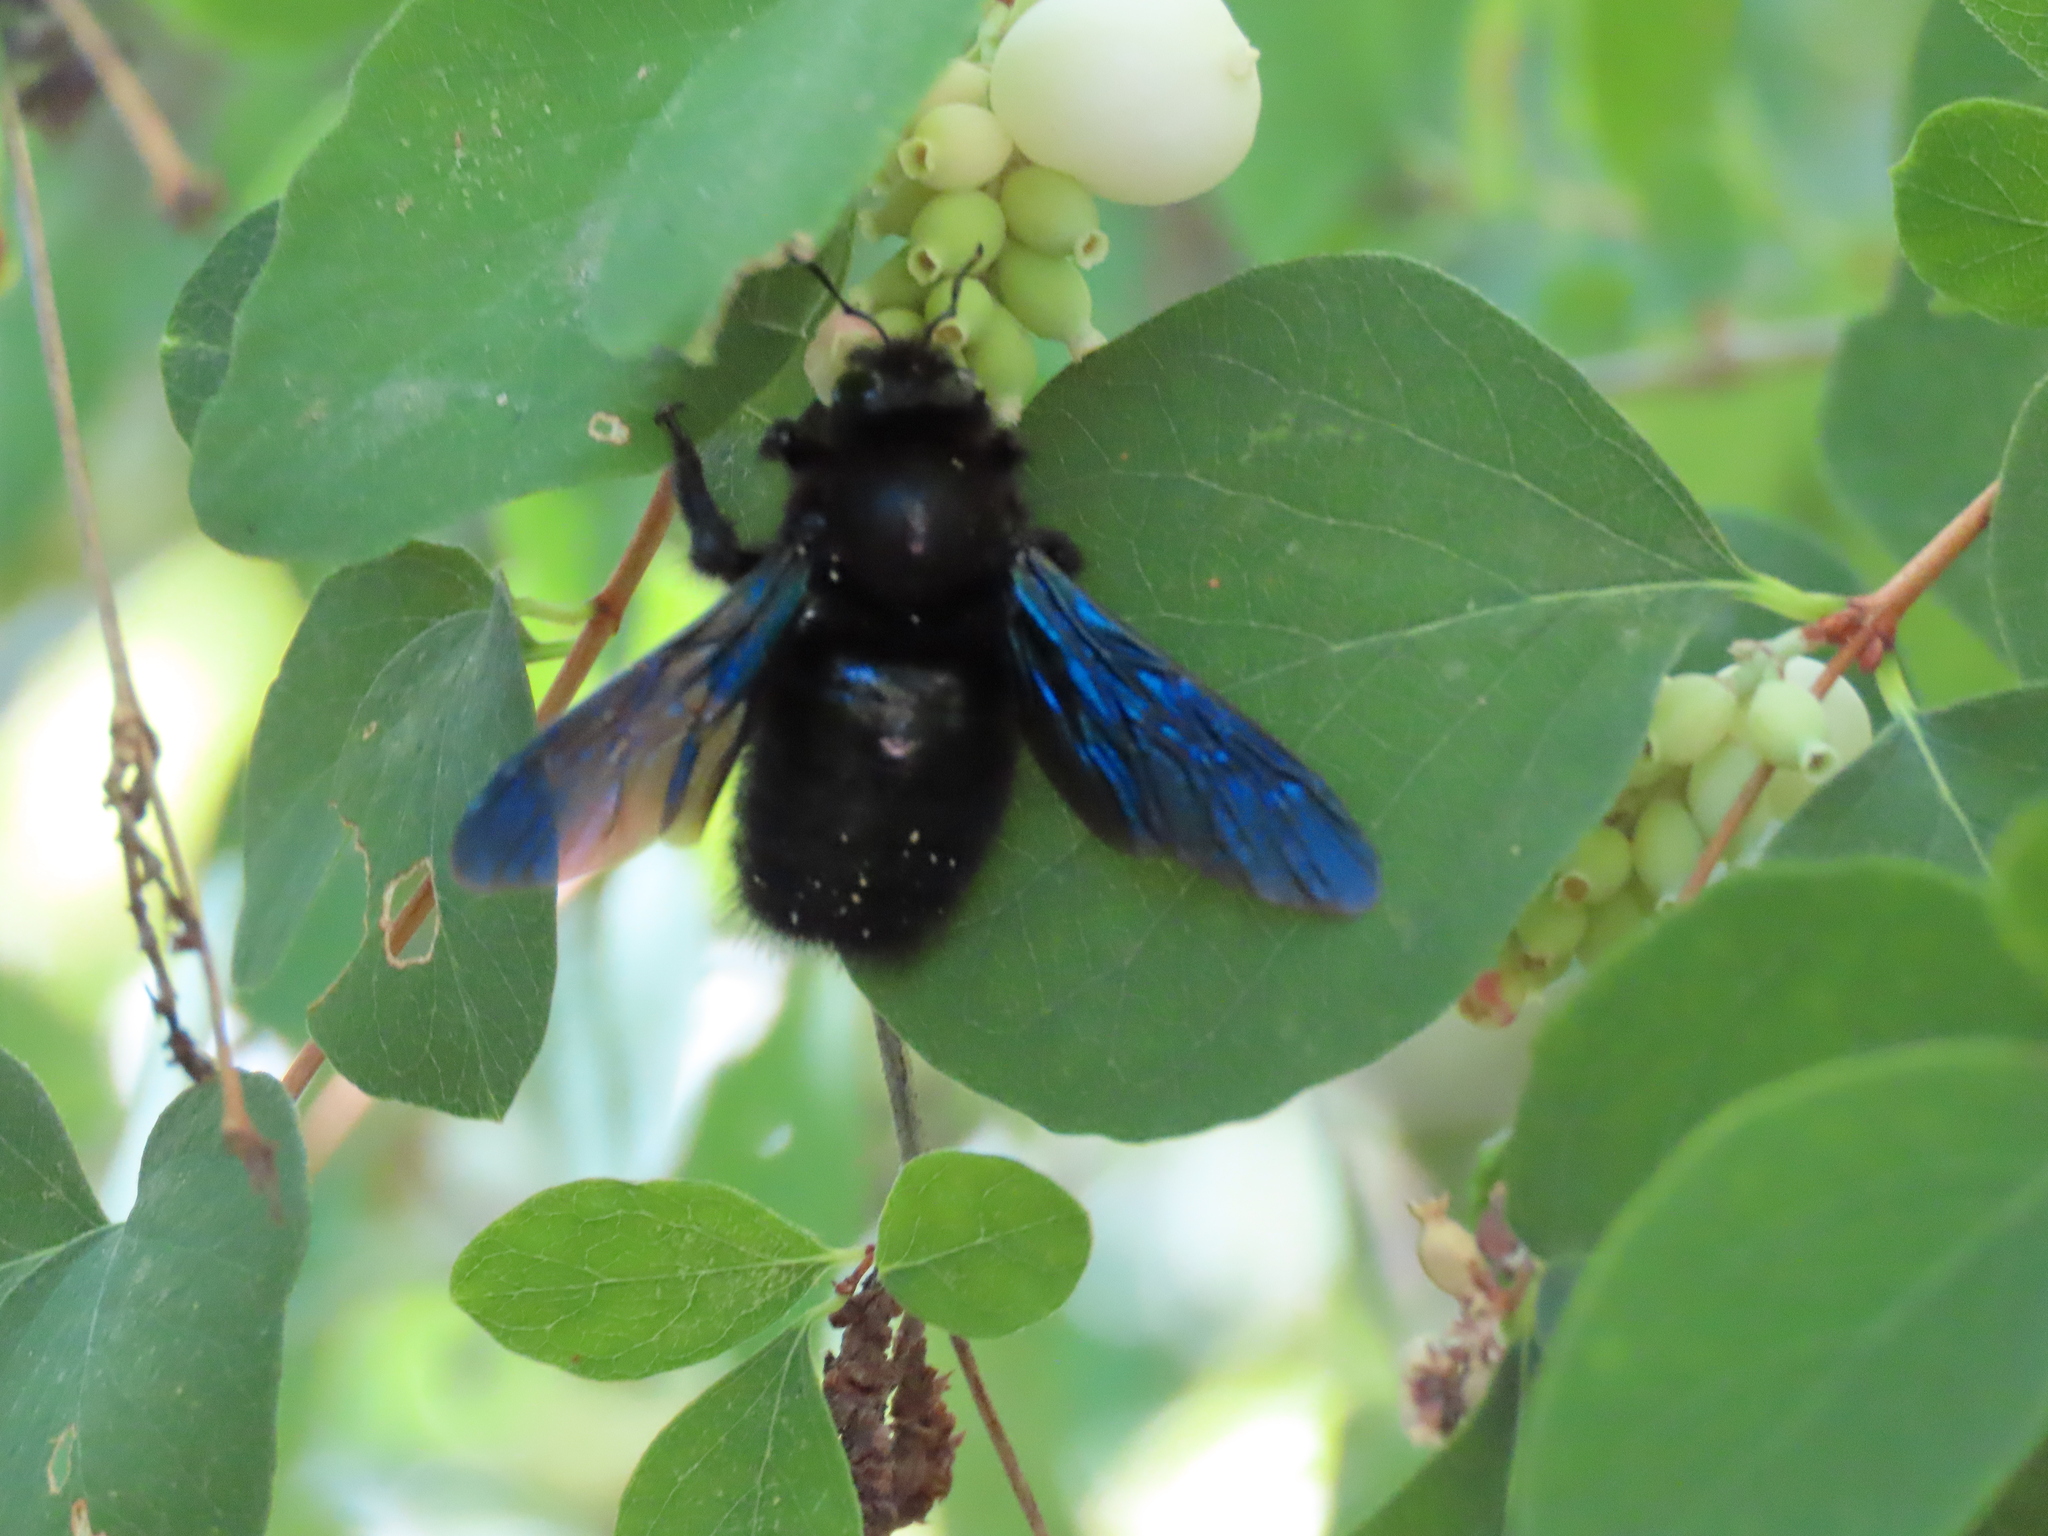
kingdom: Animalia
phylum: Arthropoda
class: Insecta
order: Hymenoptera
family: Apidae
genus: Xylocopa
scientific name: Xylocopa violacea
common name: Violet carpenter bee
